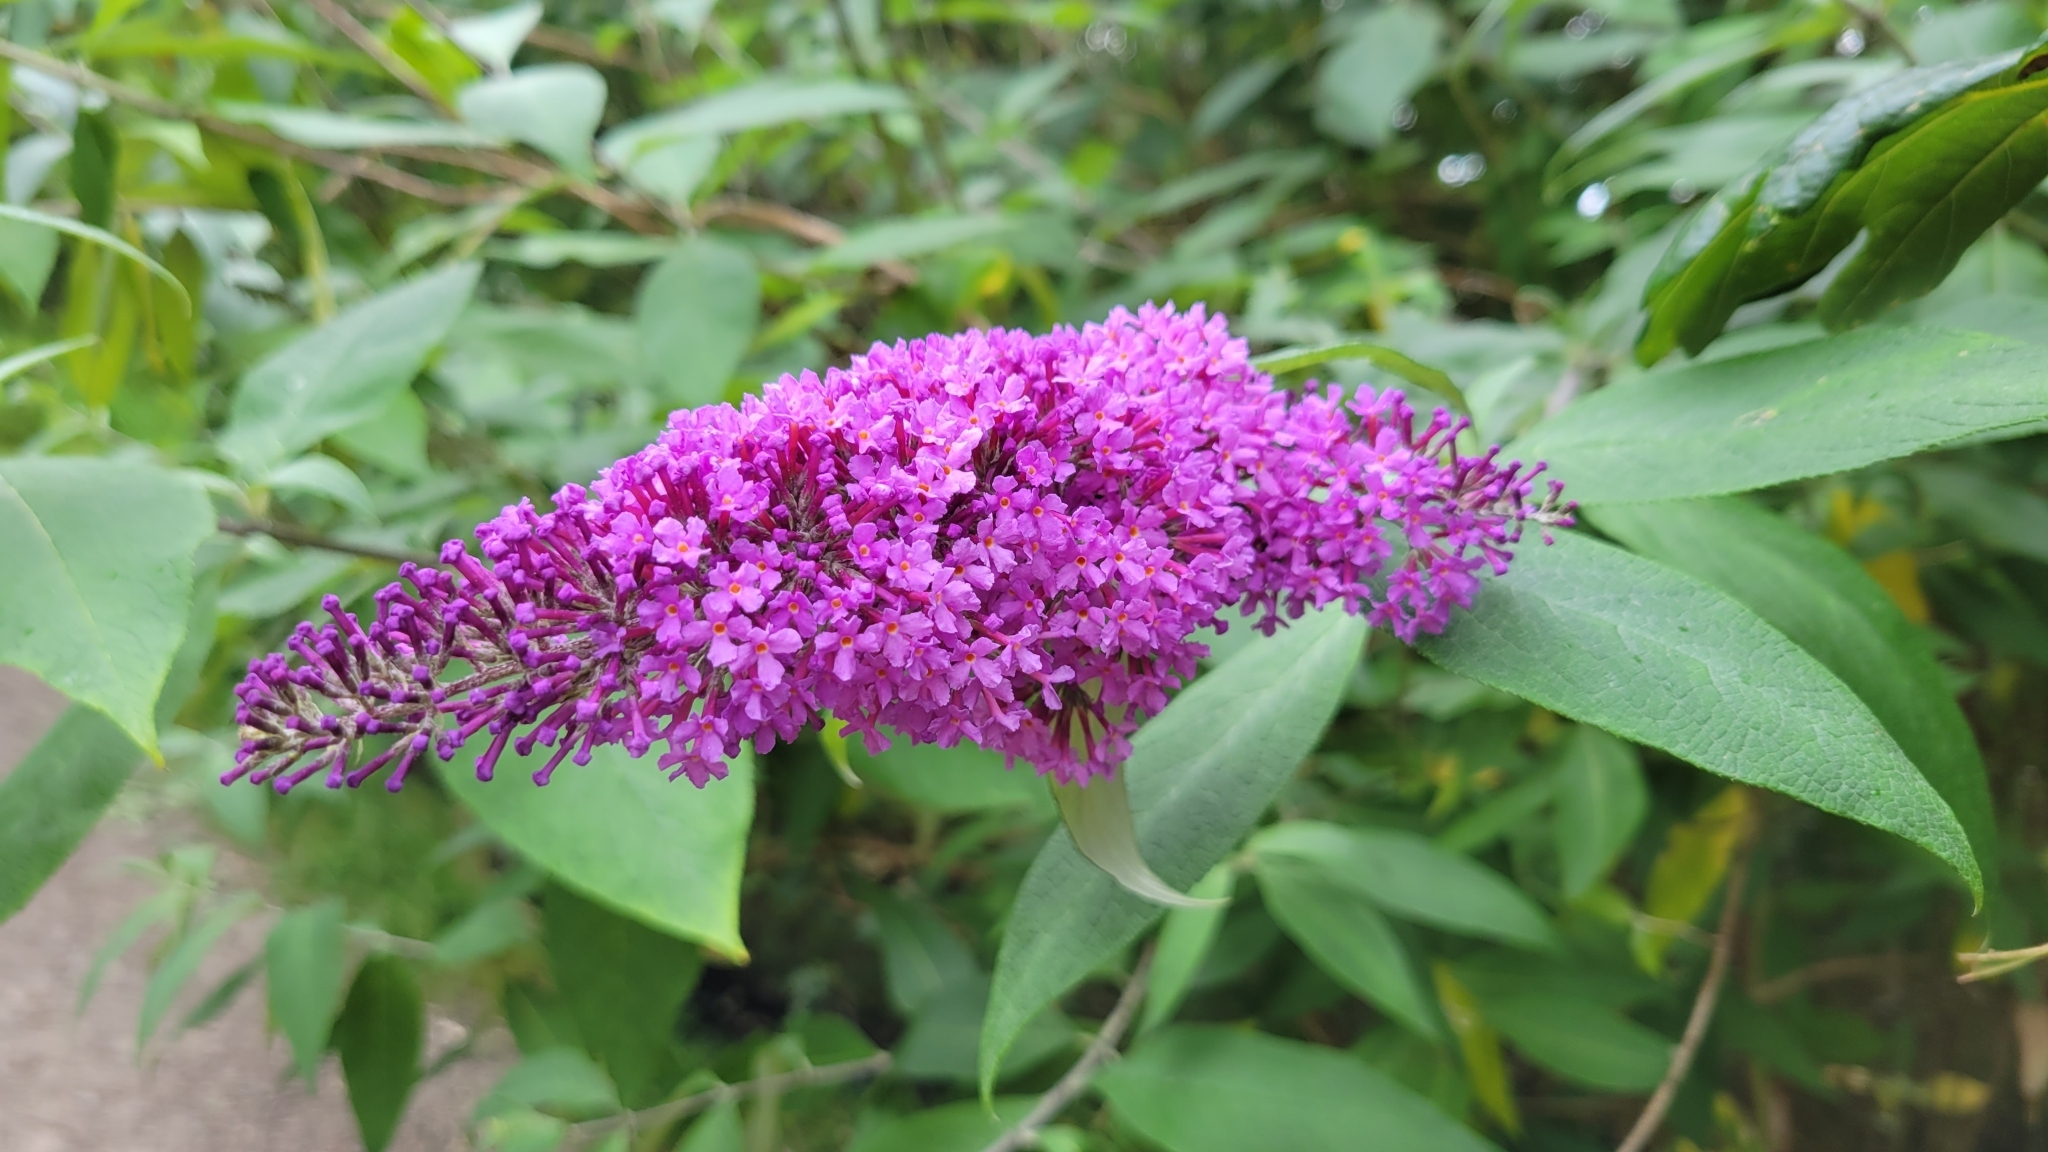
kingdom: Plantae
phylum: Tracheophyta
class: Magnoliopsida
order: Lamiales
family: Scrophulariaceae
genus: Buddleja
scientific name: Buddleja davidii
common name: Butterfly-bush
